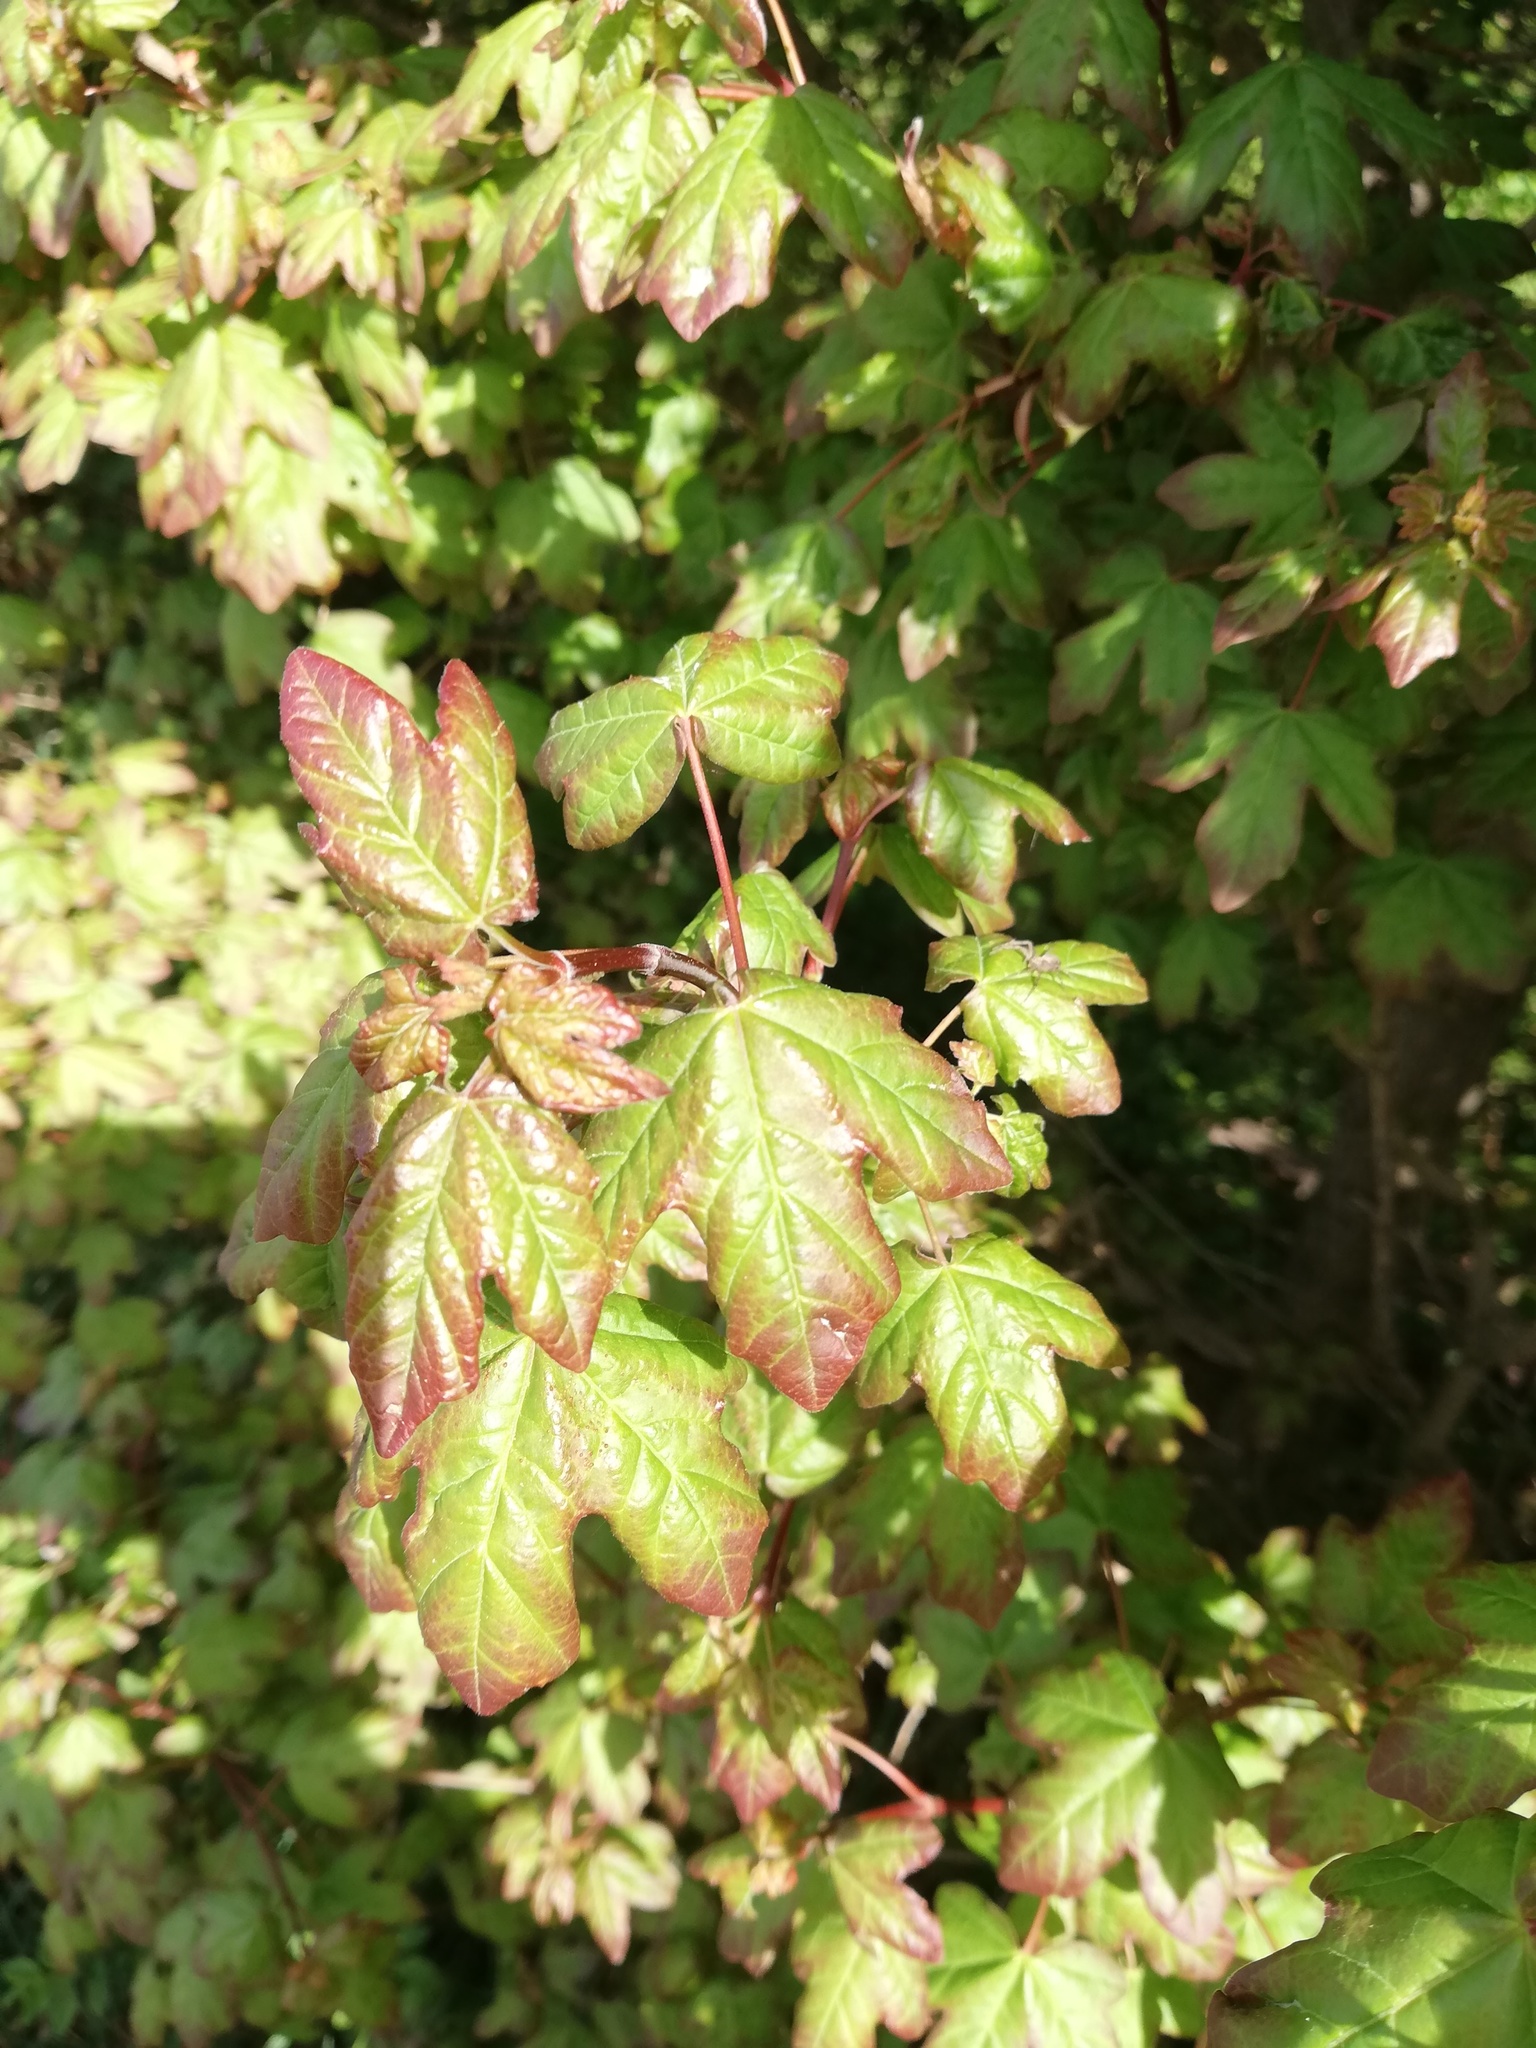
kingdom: Plantae
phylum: Tracheophyta
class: Magnoliopsida
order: Sapindales
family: Sapindaceae
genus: Acer
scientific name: Acer campestre
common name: Field maple
